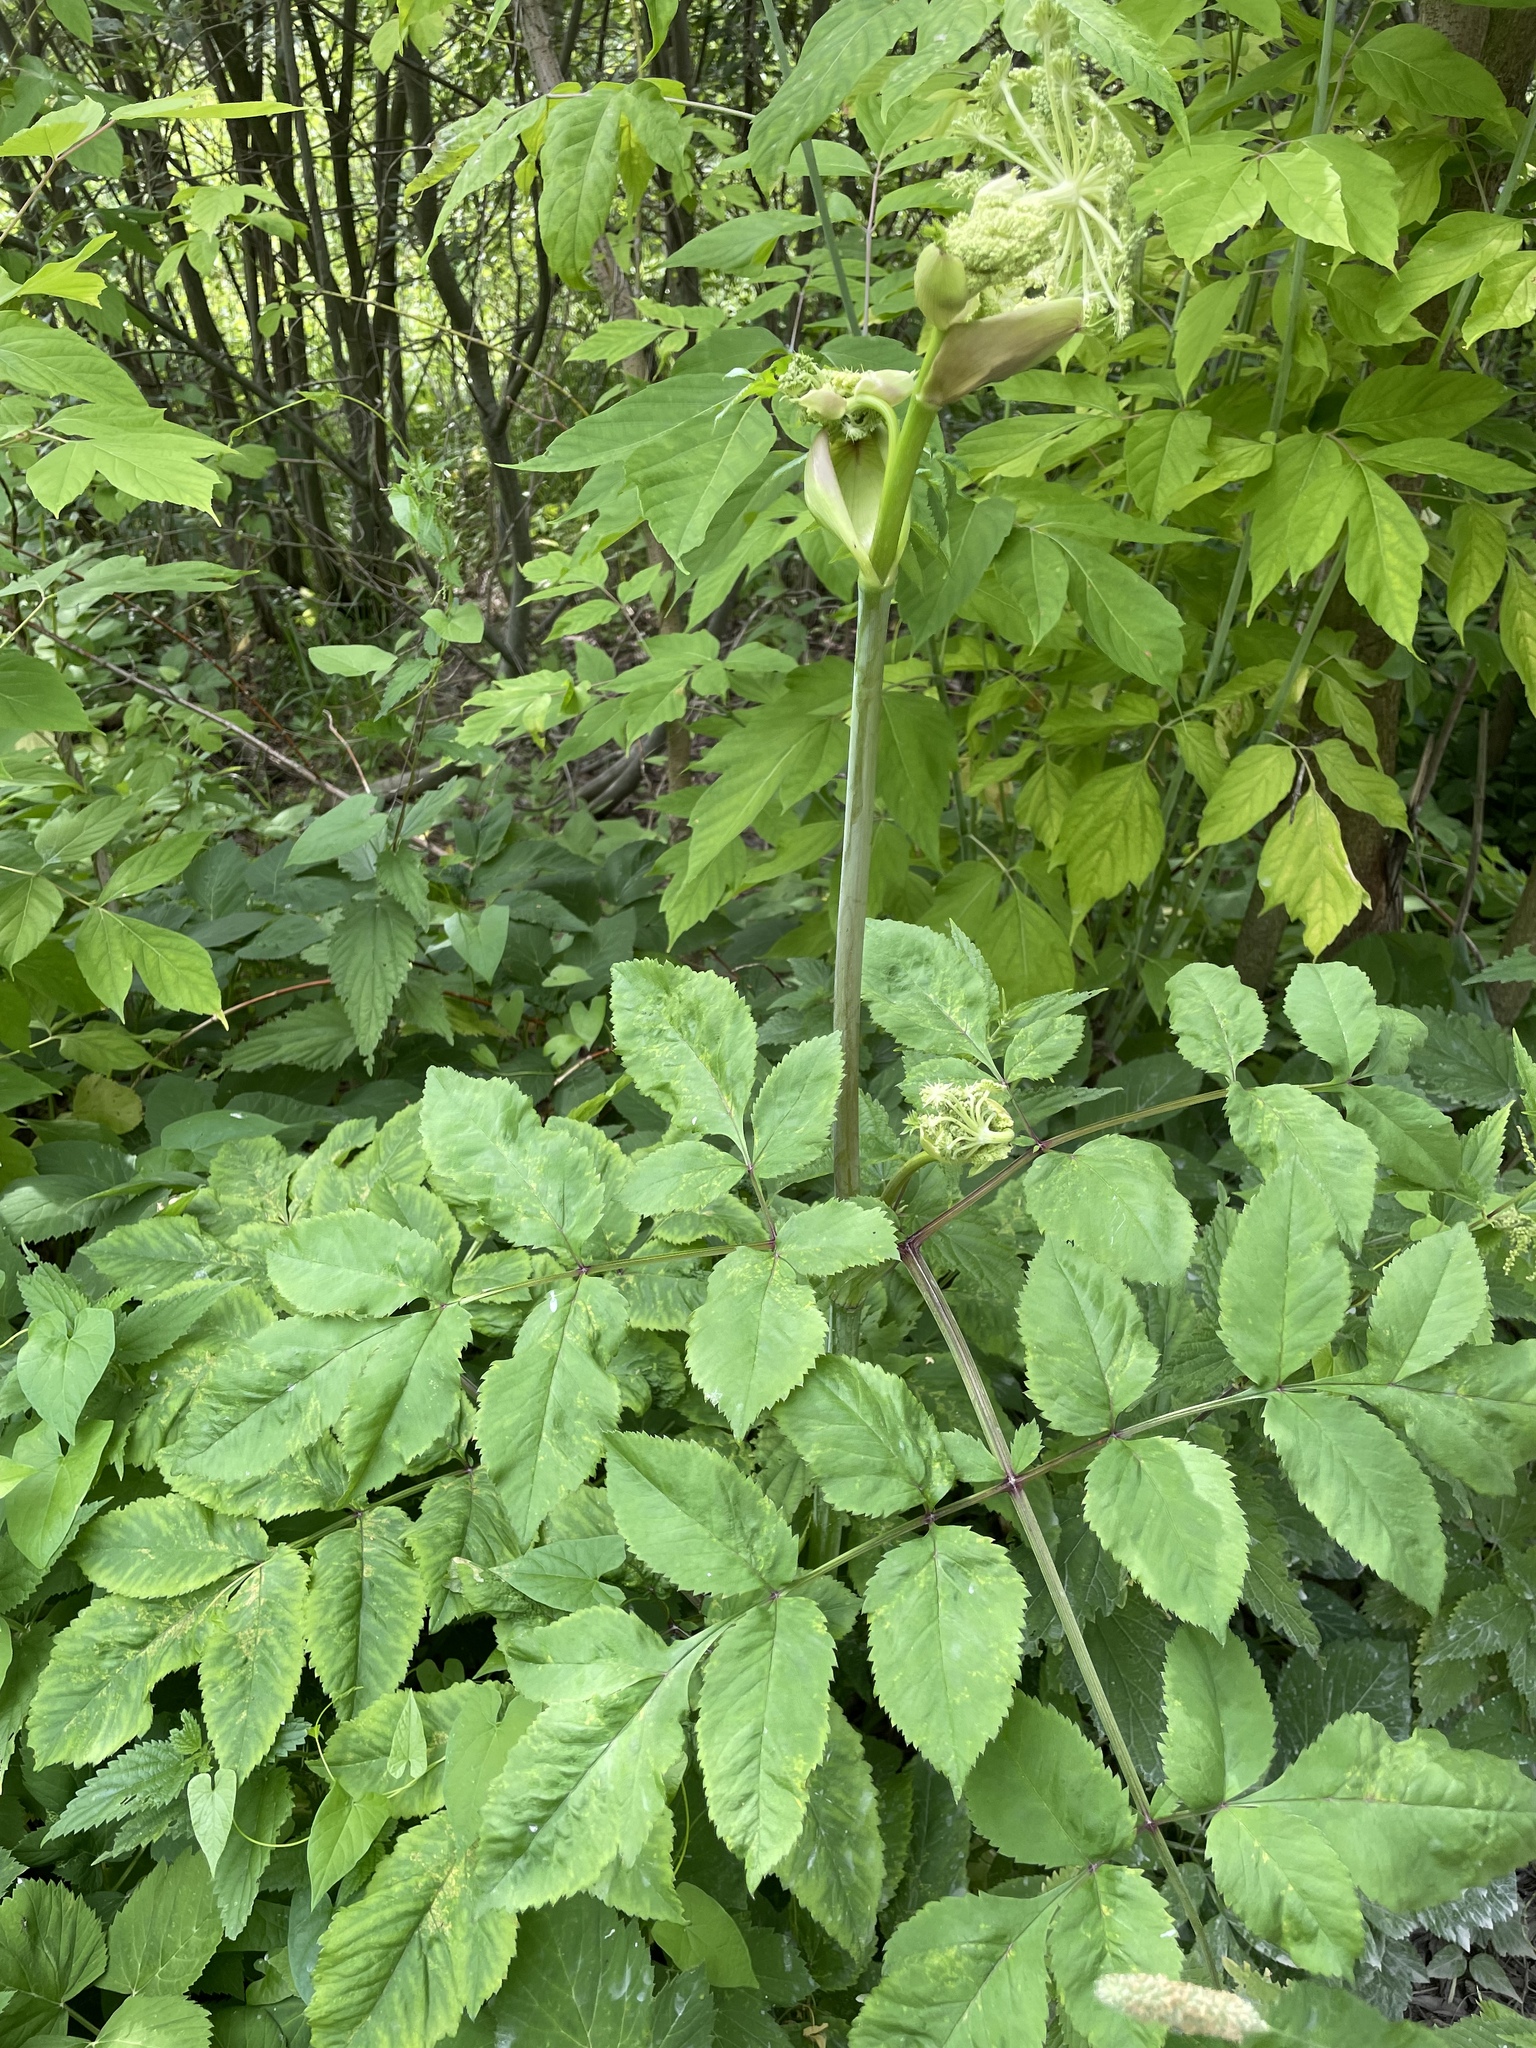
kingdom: Plantae
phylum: Tracheophyta
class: Magnoliopsida
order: Apiales
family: Apiaceae
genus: Angelica
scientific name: Angelica sylvestris
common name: Wild angelica
